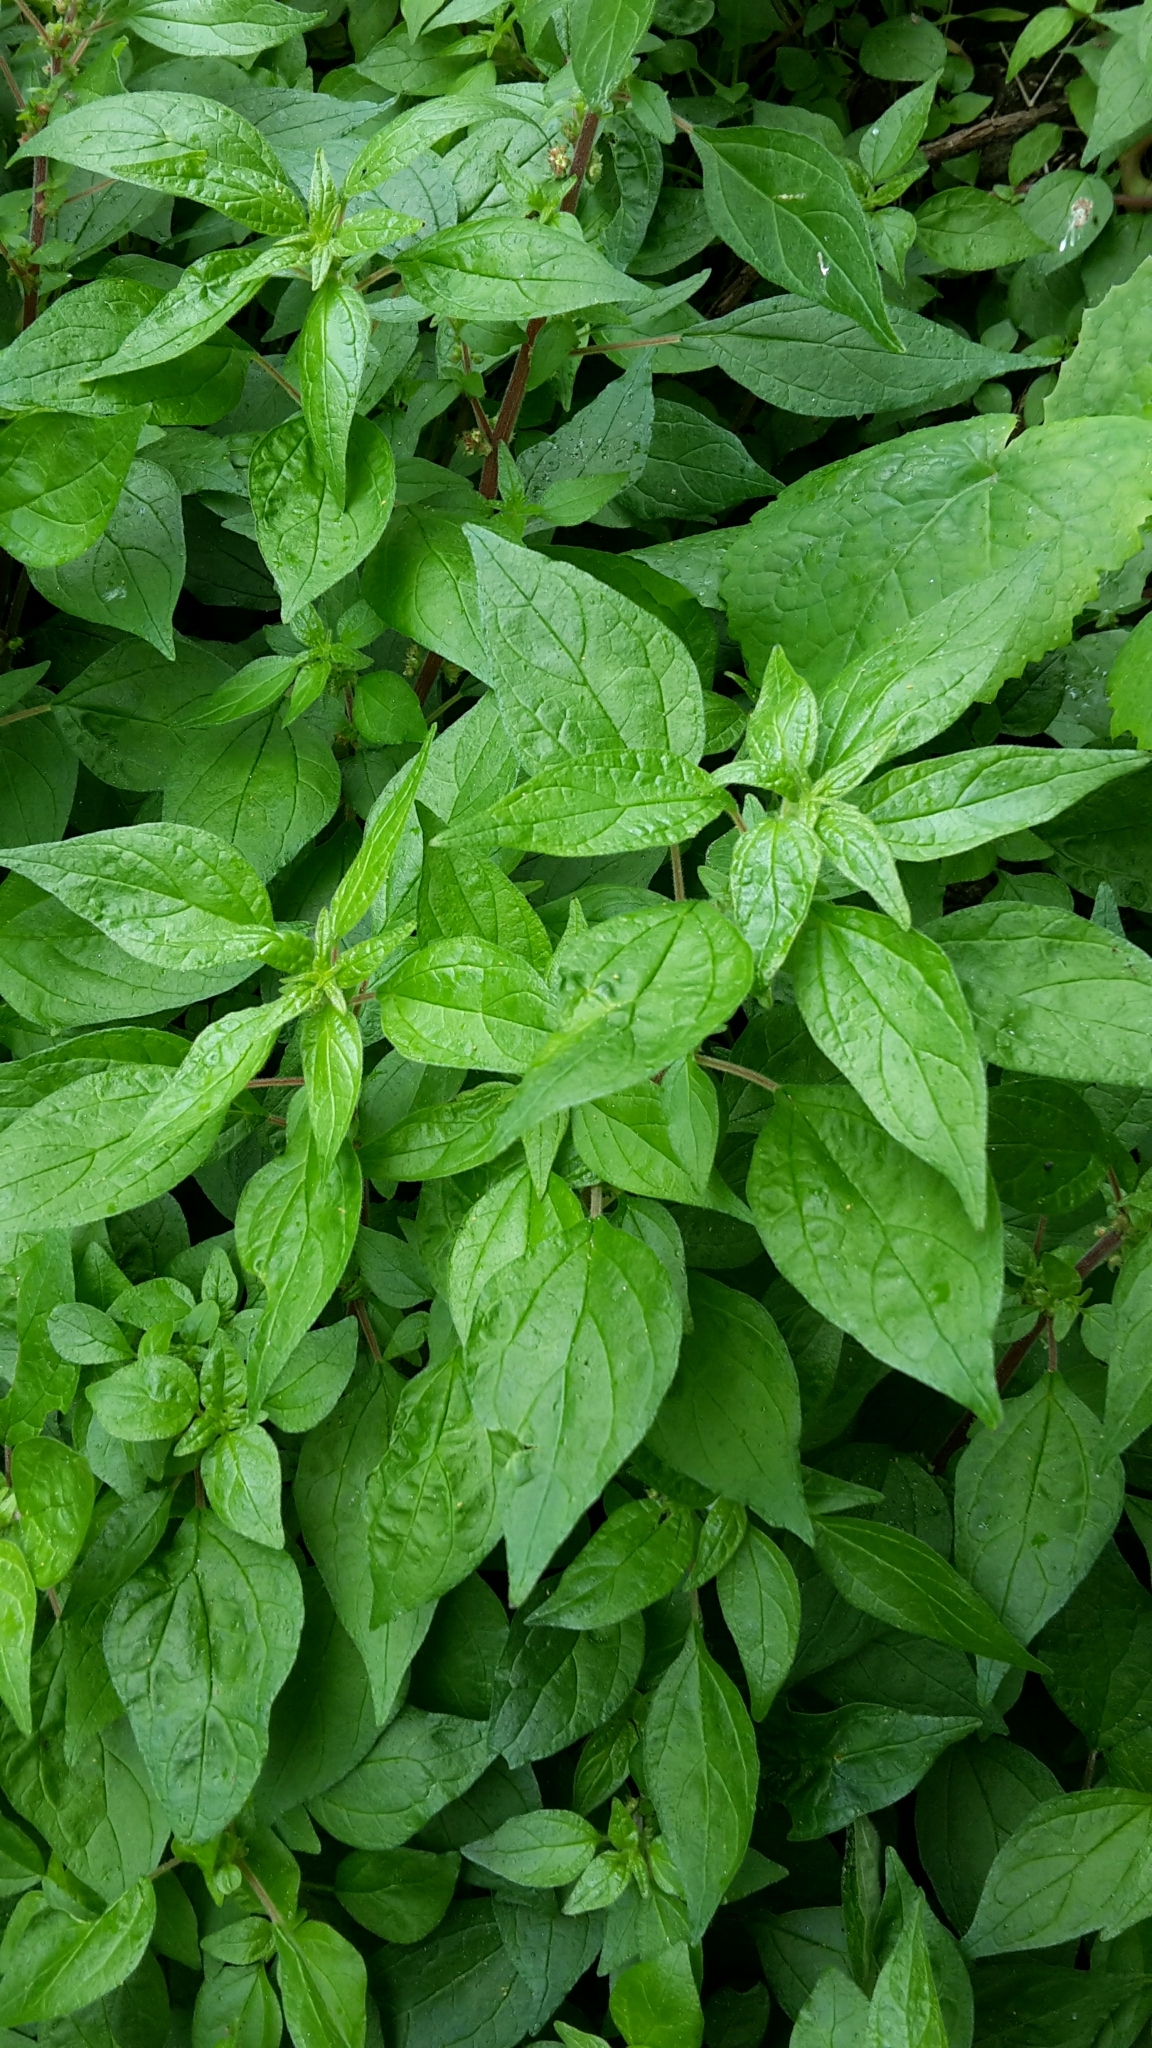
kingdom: Plantae
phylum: Tracheophyta
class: Magnoliopsida
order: Rosales
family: Urticaceae
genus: Parietaria
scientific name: Parietaria judaica
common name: Pellitory-of-the-wall
